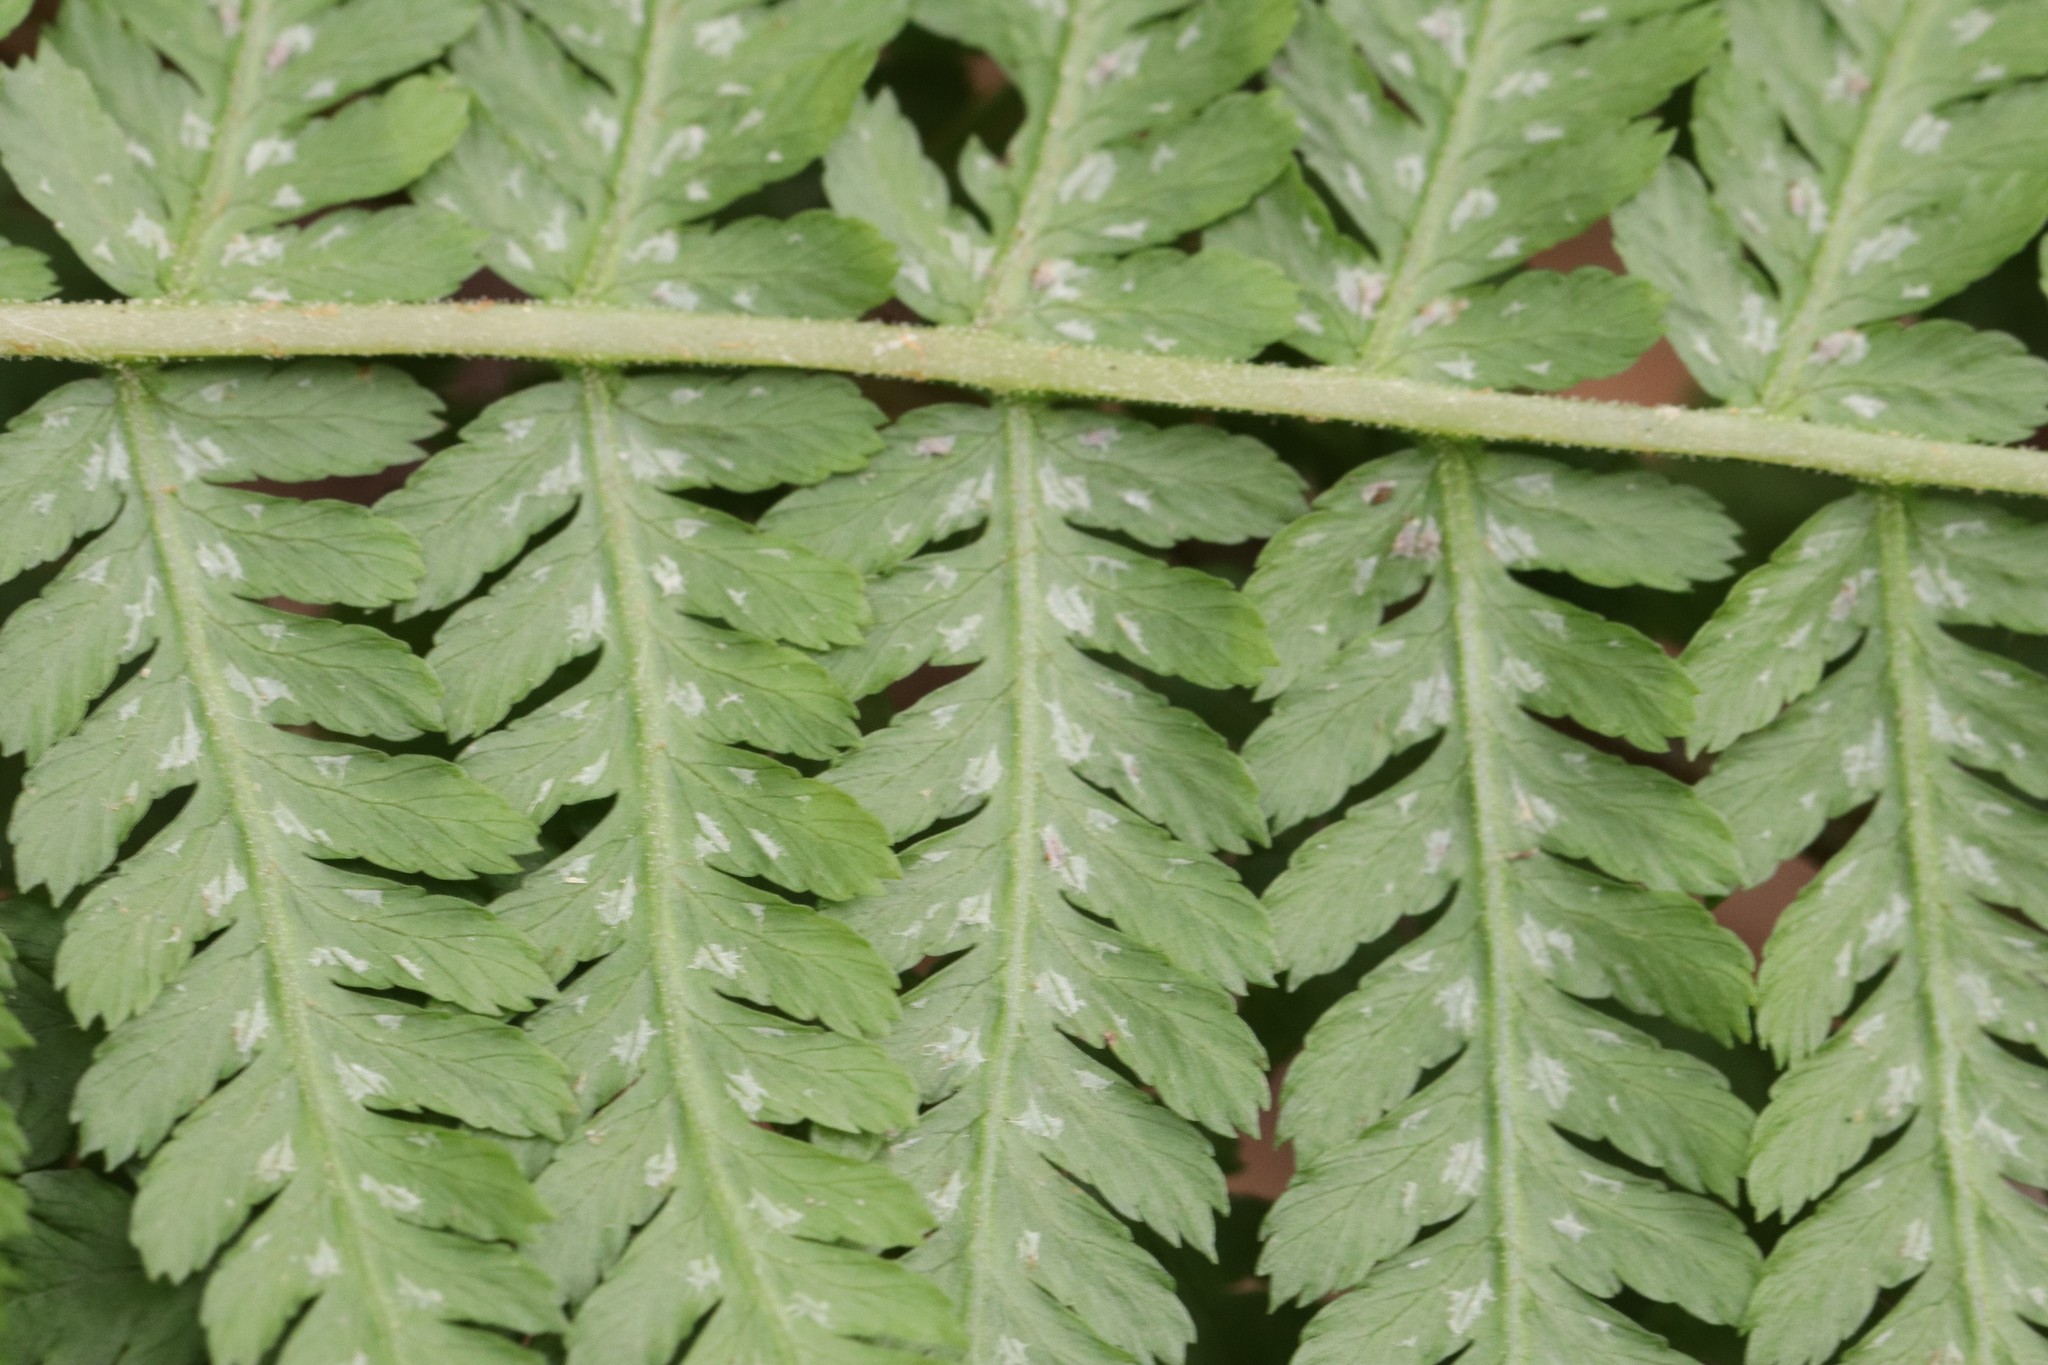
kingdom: Plantae
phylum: Tracheophyta
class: Polypodiopsida
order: Polypodiales
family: Athyriaceae
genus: Athyrium
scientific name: Athyrium filix-femina
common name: Lady fern
